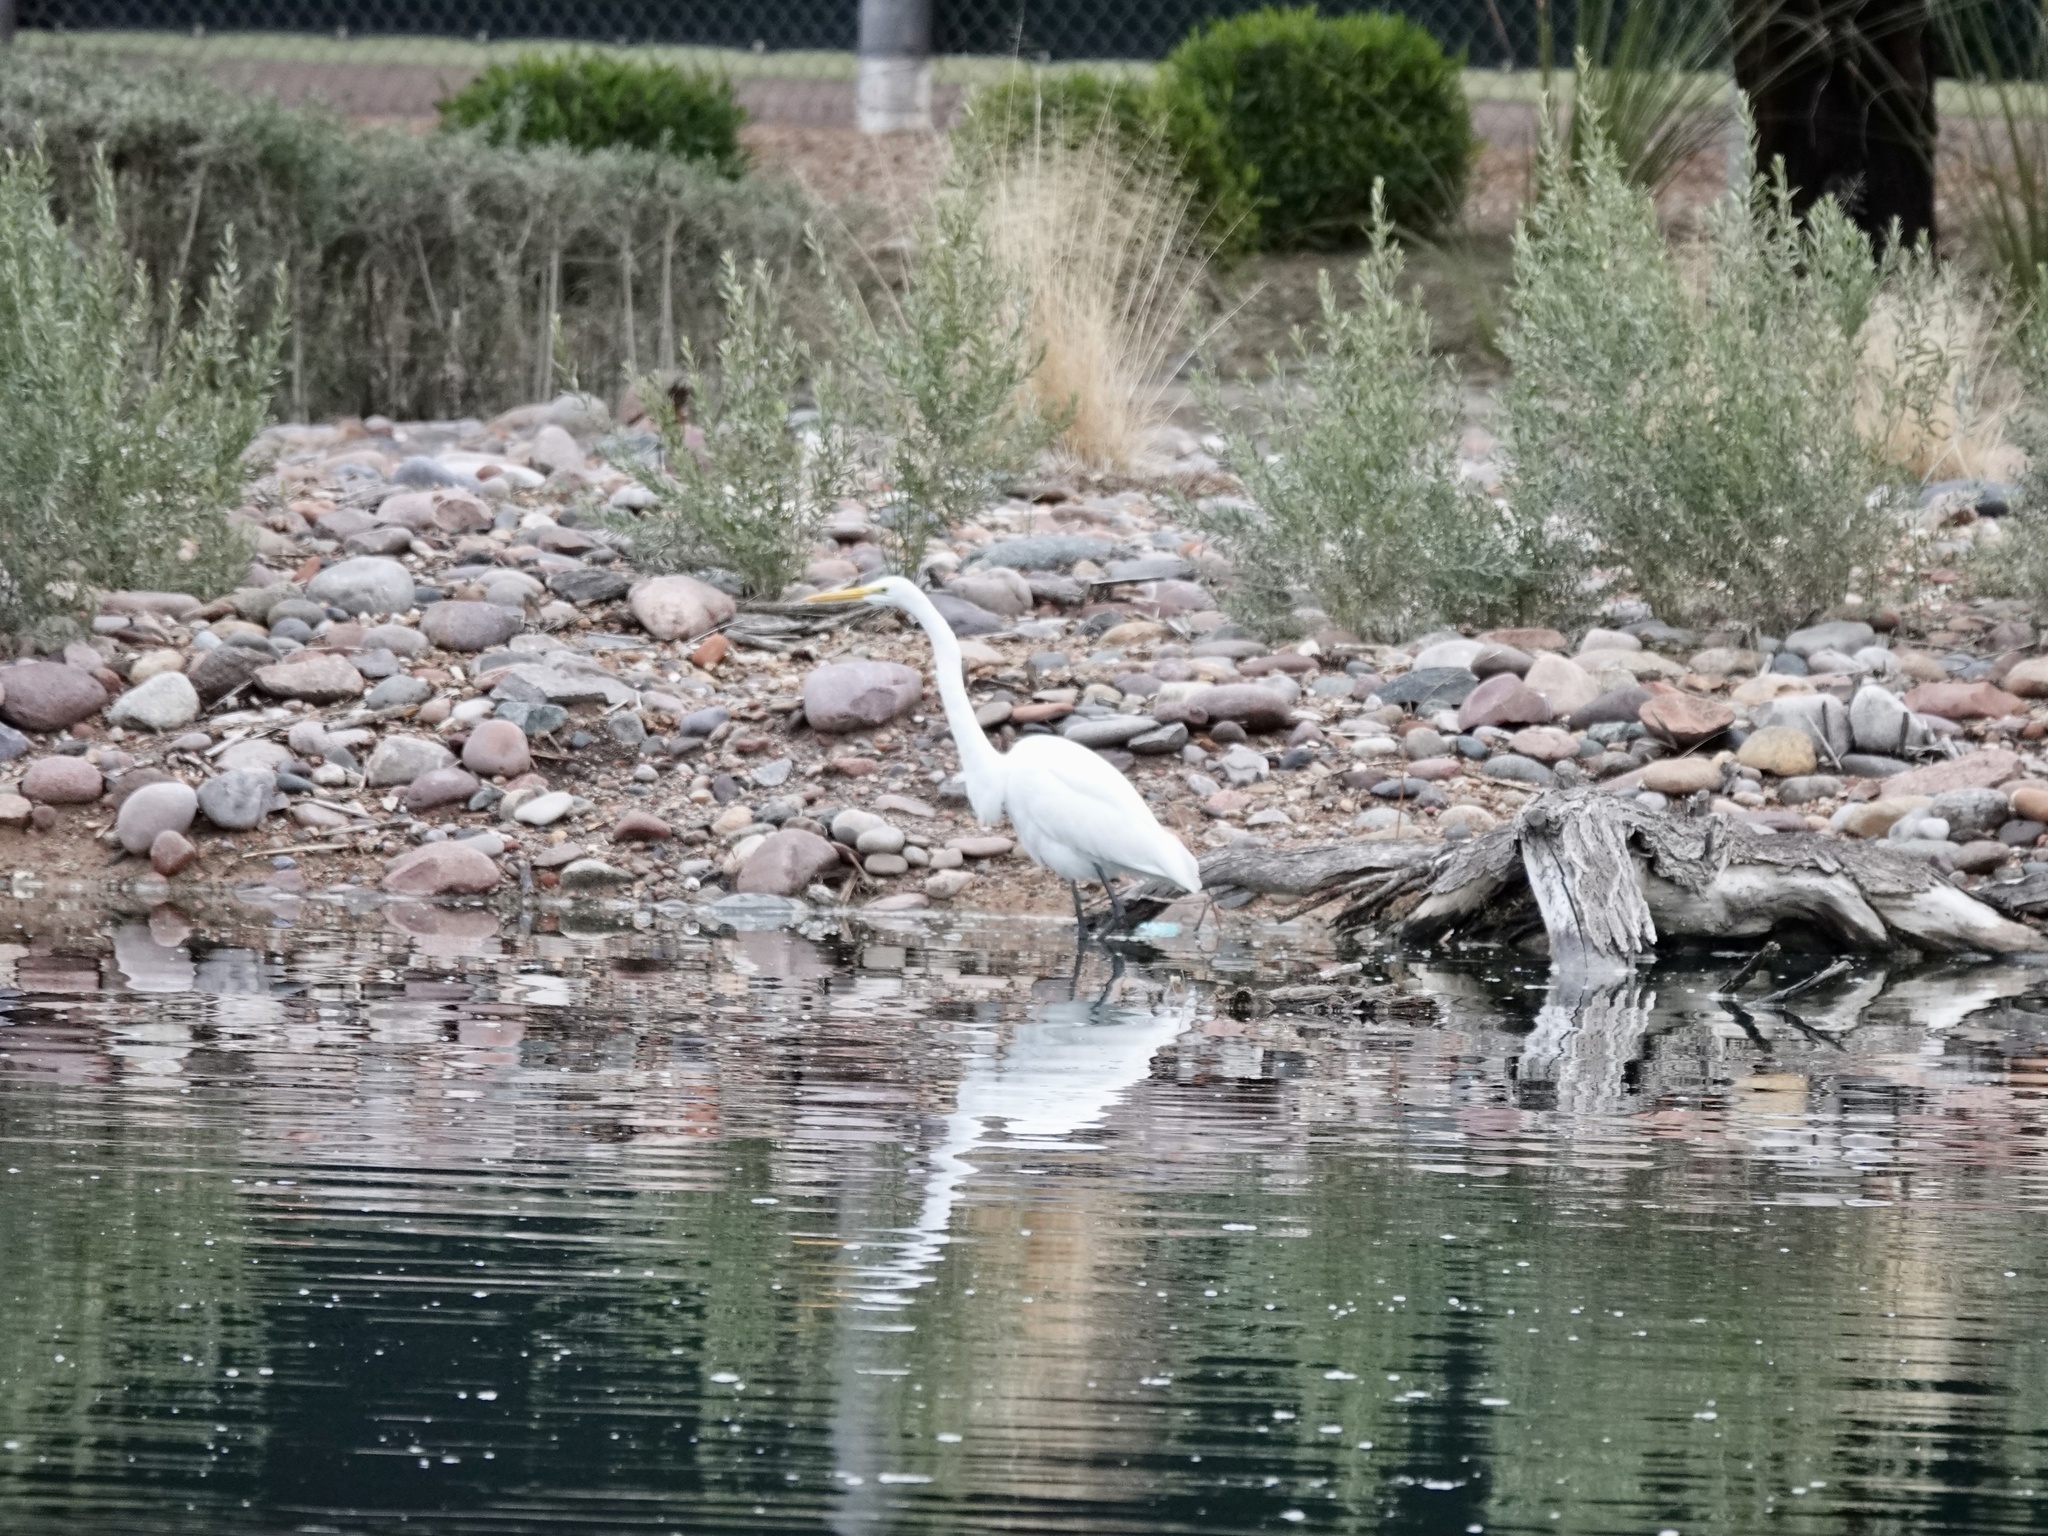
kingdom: Animalia
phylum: Chordata
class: Aves
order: Pelecaniformes
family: Ardeidae
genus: Ardea
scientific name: Ardea alba
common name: Great egret
